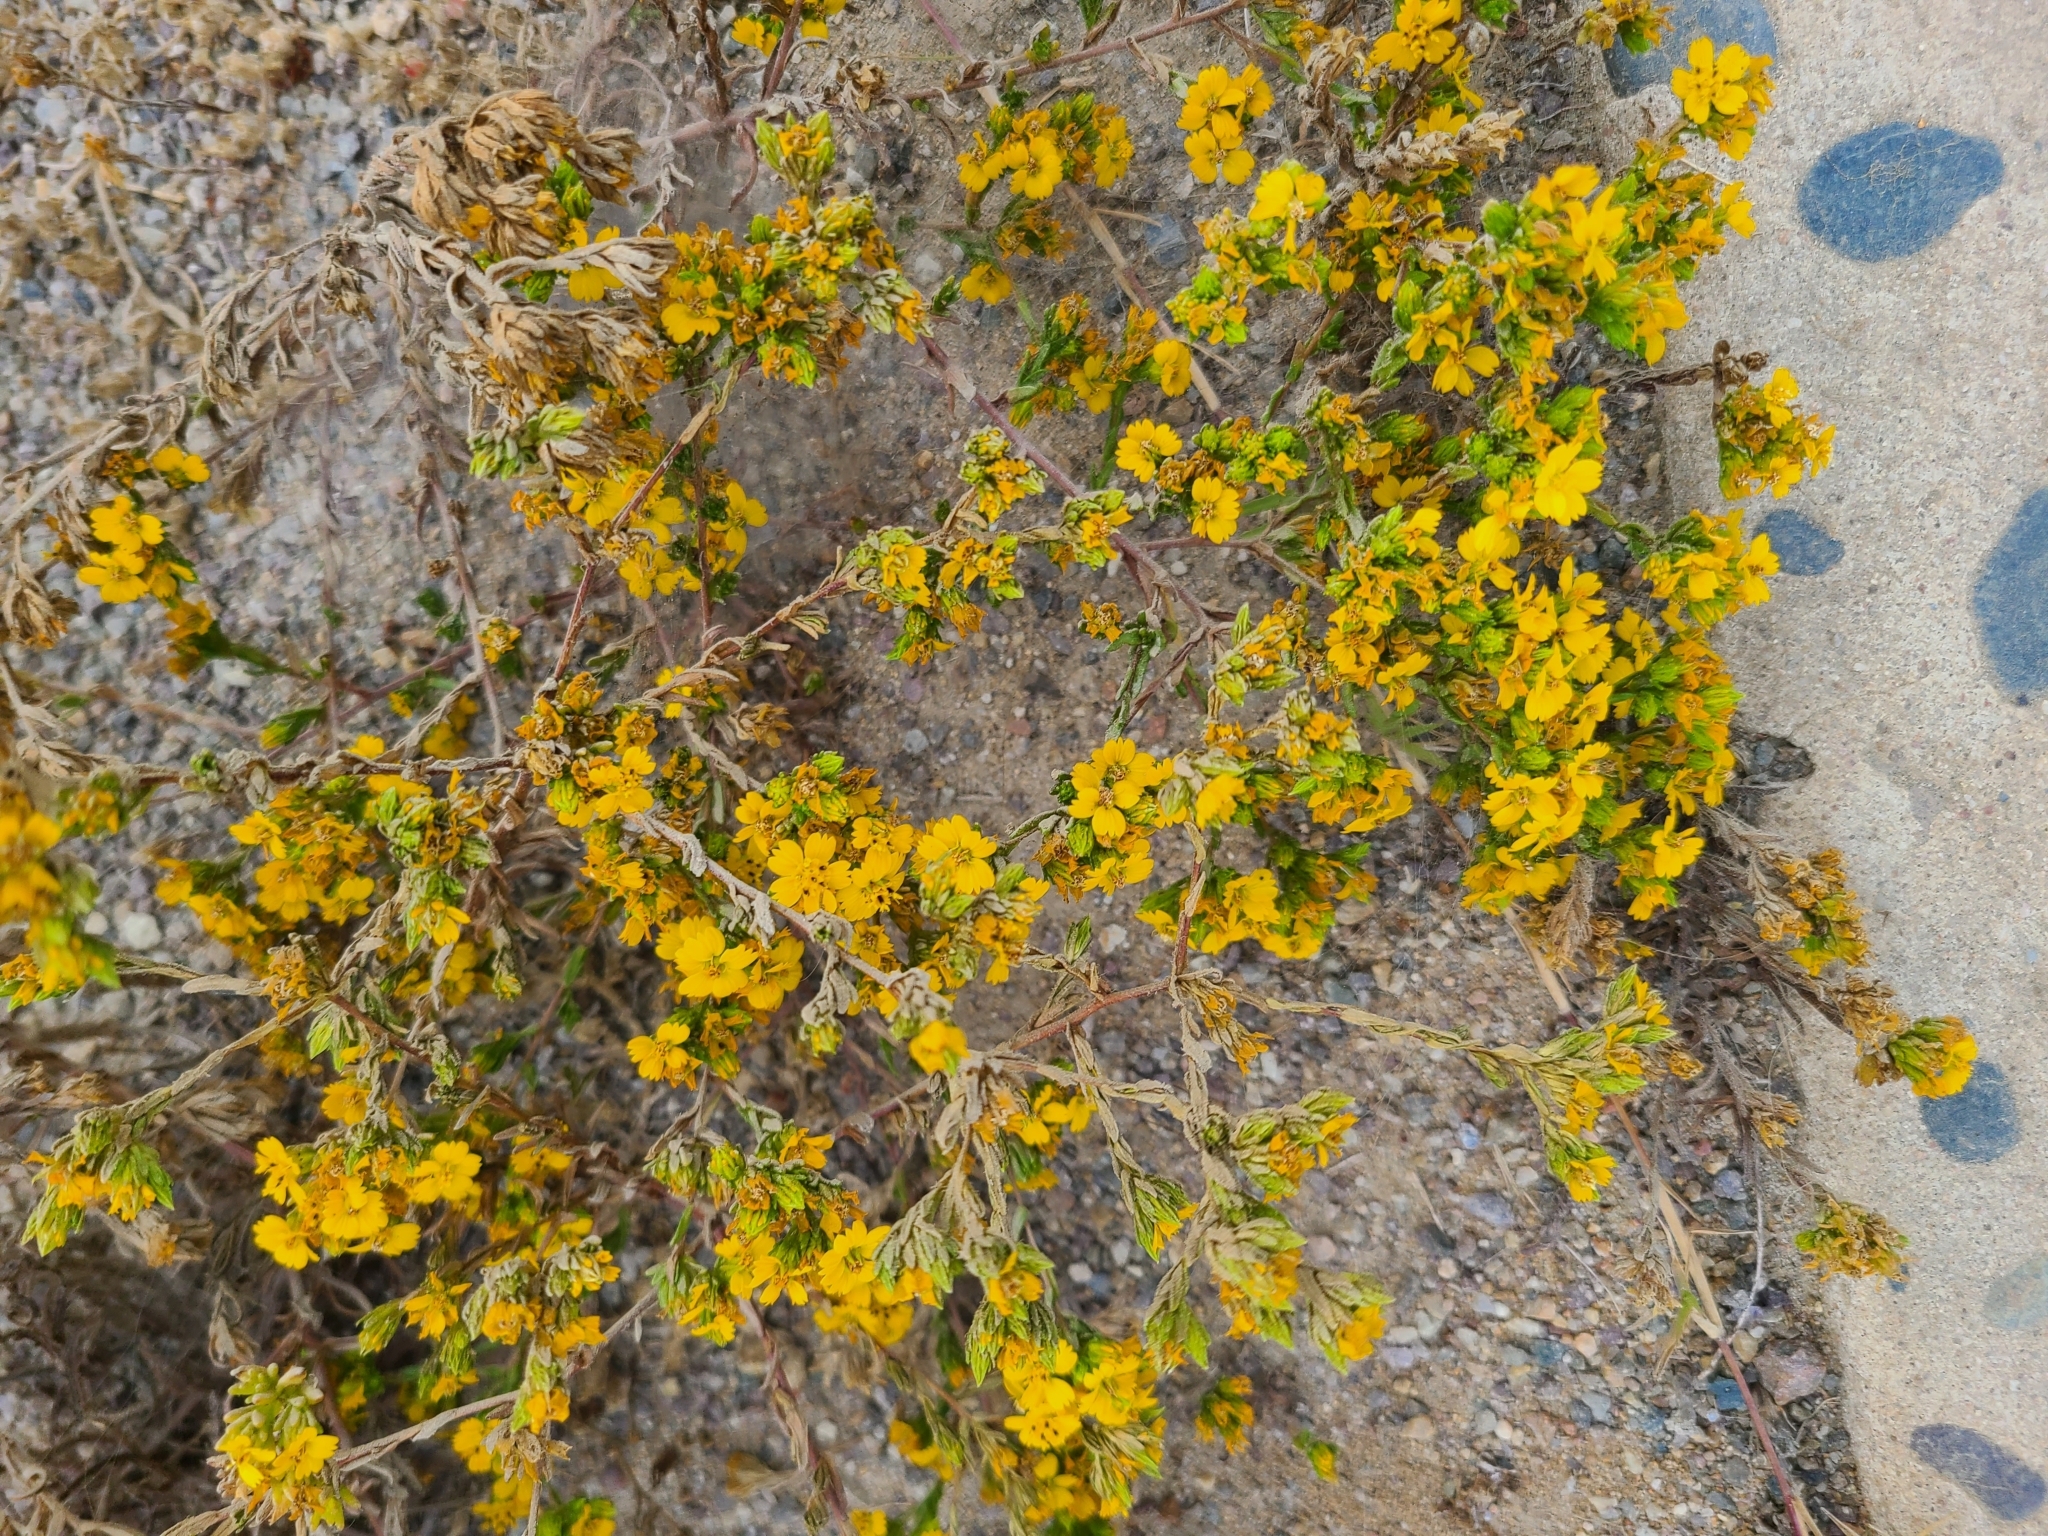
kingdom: Plantae
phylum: Tracheophyta
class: Magnoliopsida
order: Asterales
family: Asteraceae
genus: Deinandra
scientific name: Deinandra fasciculata
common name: Clustered tarweed
